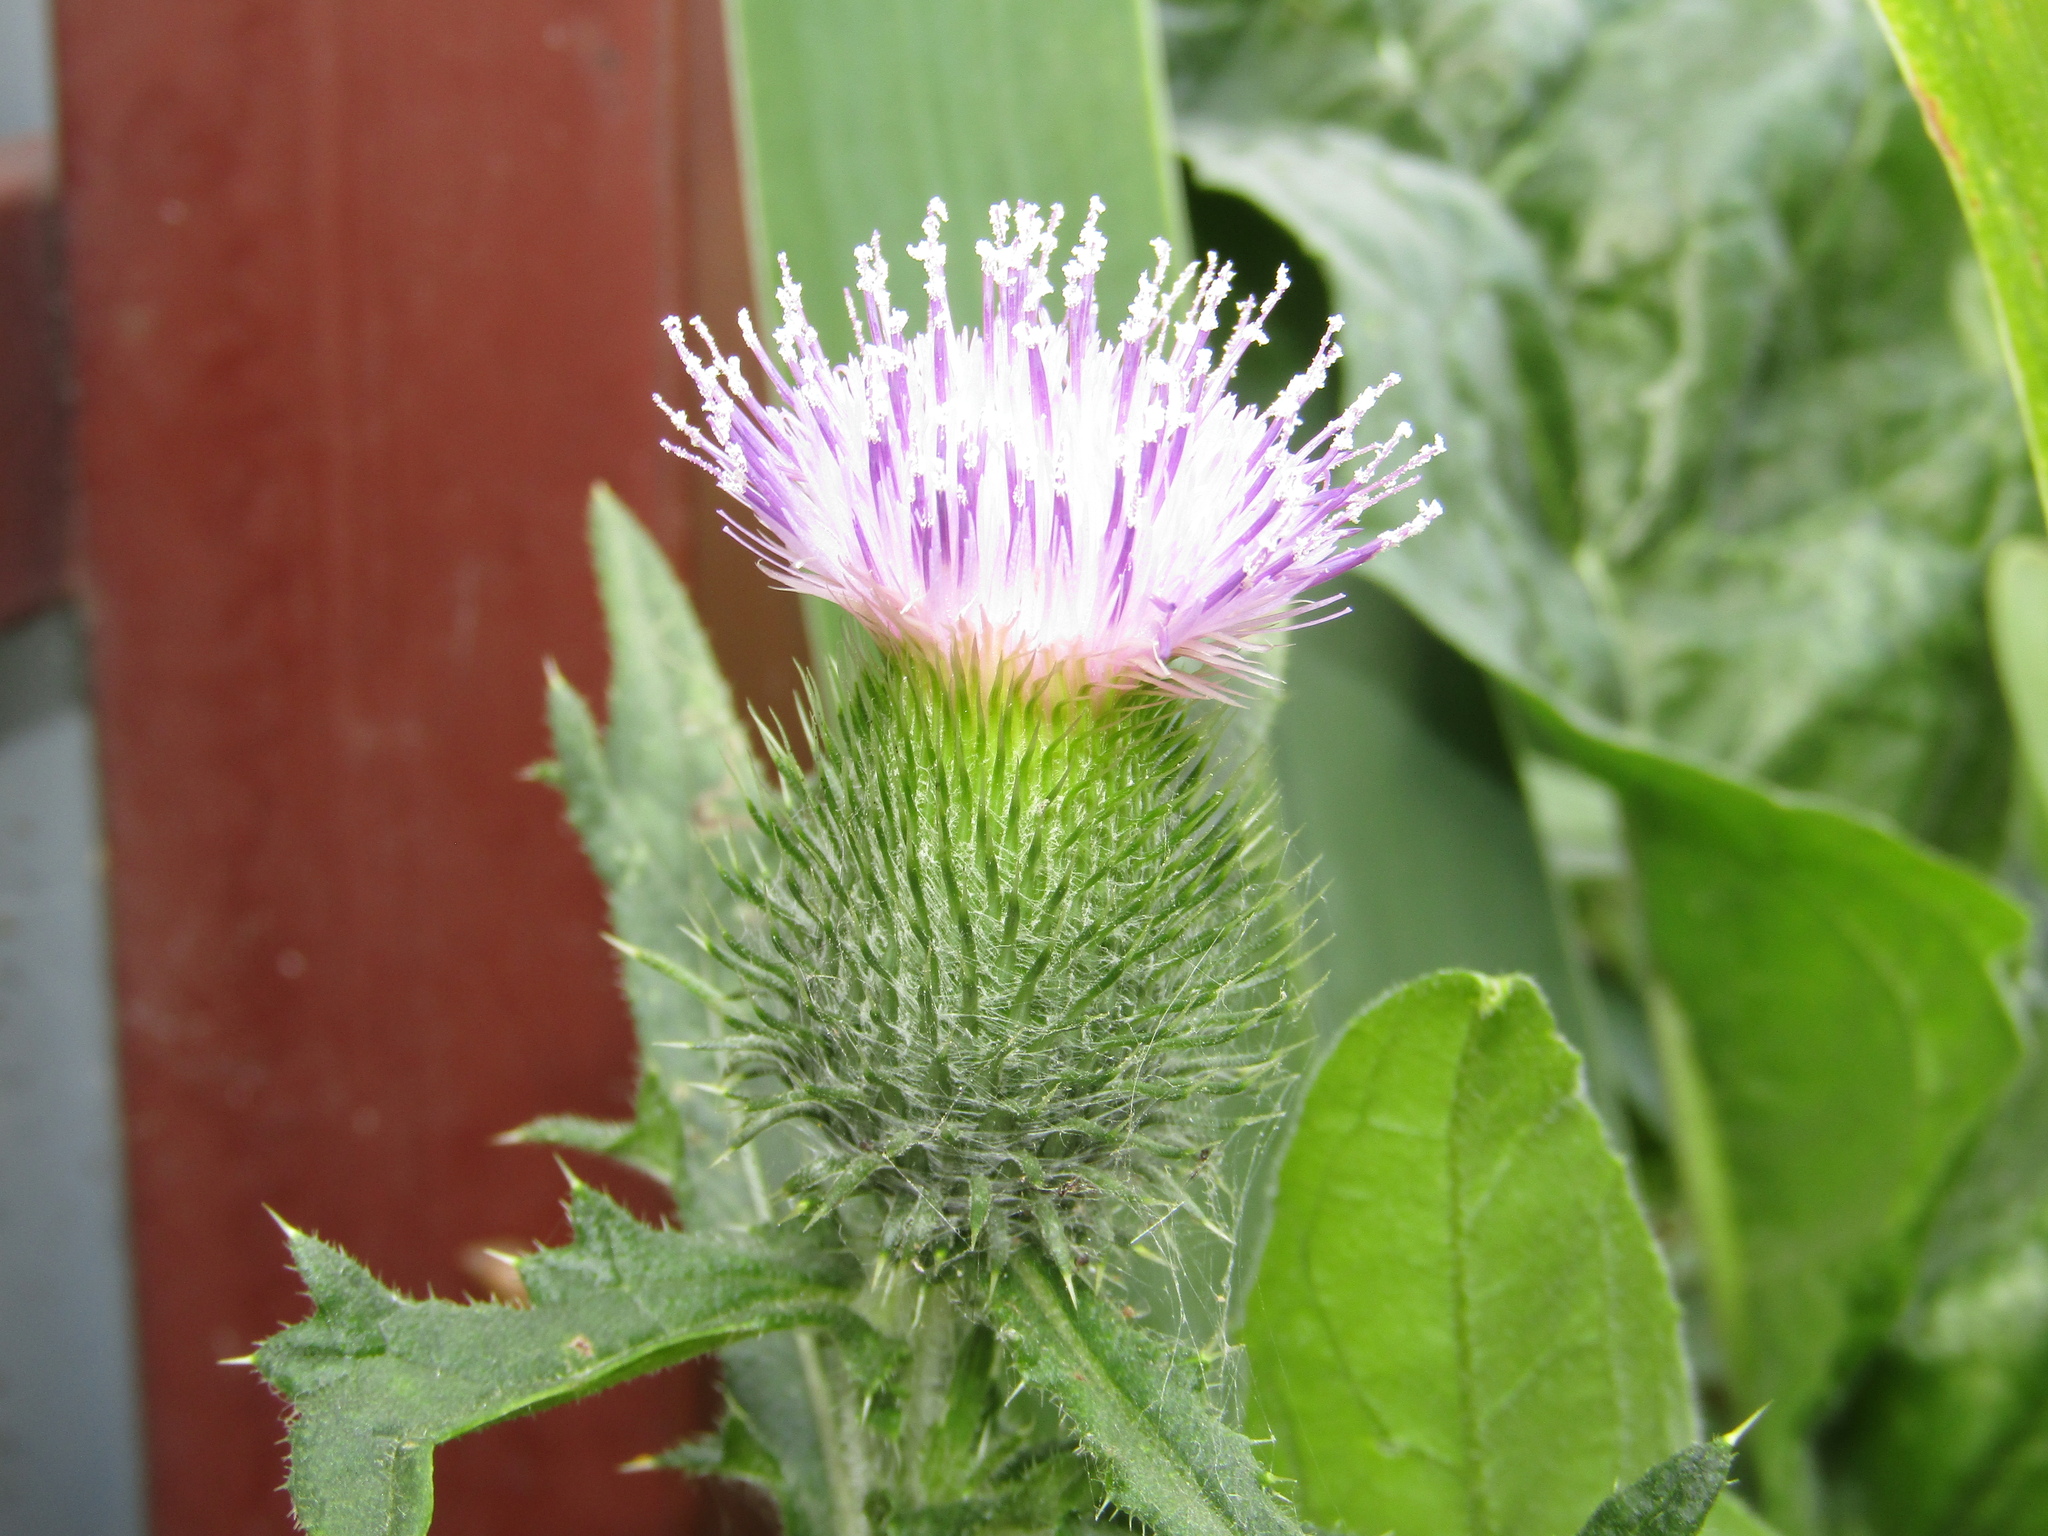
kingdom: Plantae
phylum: Tracheophyta
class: Magnoliopsida
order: Asterales
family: Asteraceae
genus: Cirsium
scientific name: Cirsium vulgare
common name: Bull thistle
